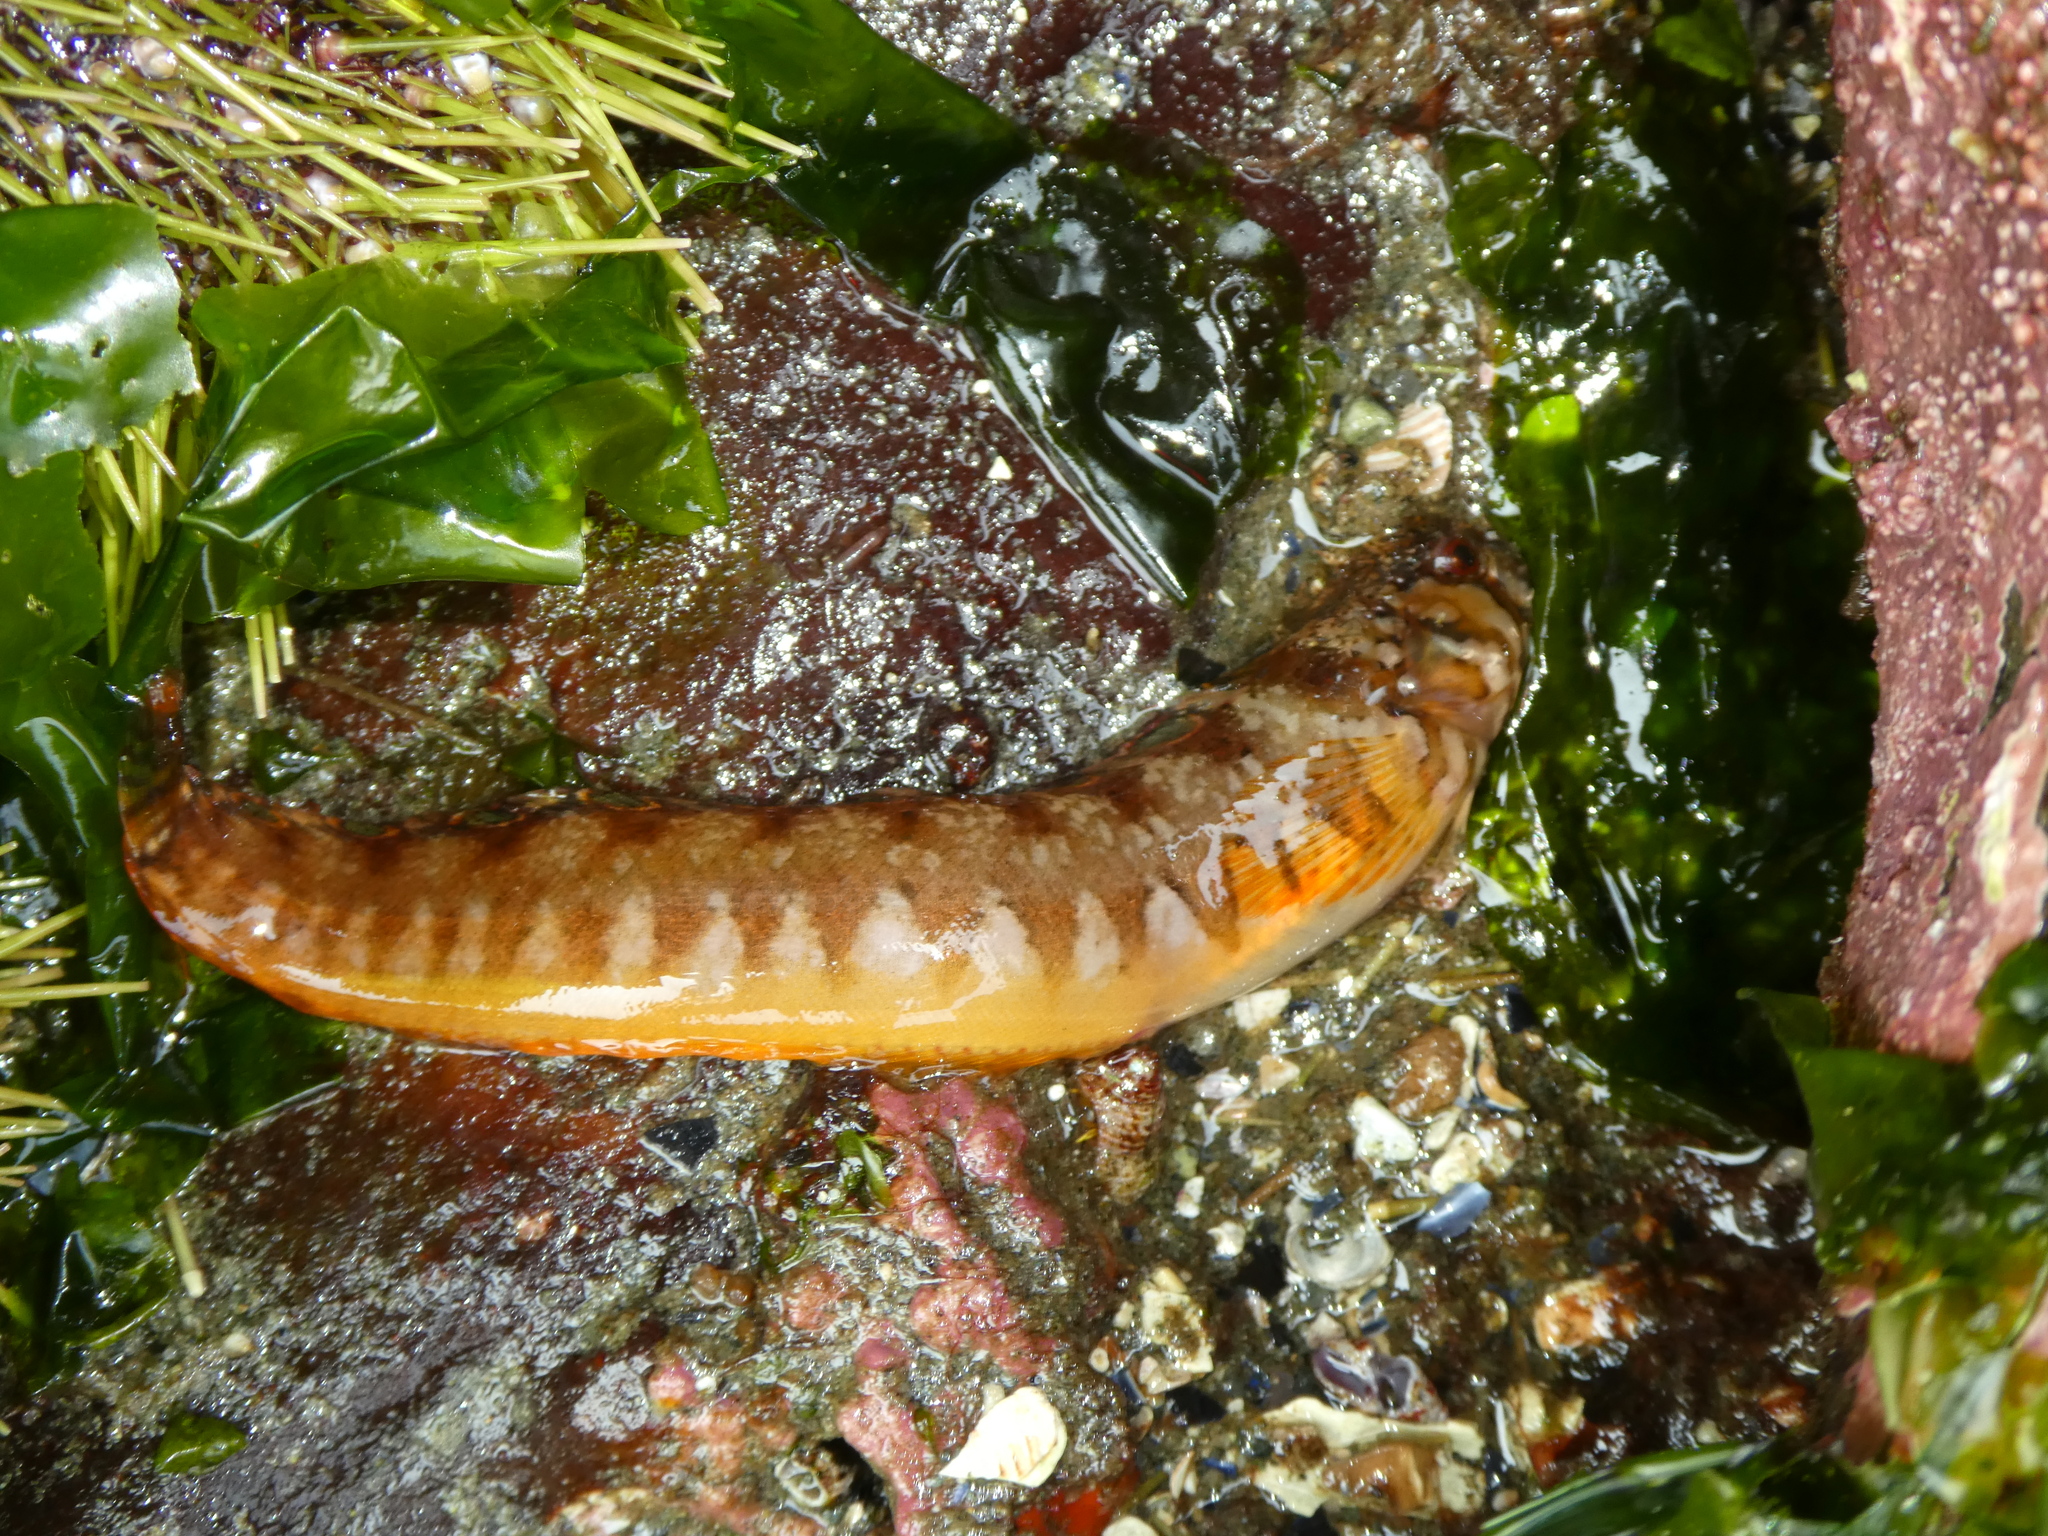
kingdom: Animalia
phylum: Chordata
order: Perciformes
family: Stichaeidae
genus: Chirolophis
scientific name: Chirolophis nugator
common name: Mosshead warbonnet
